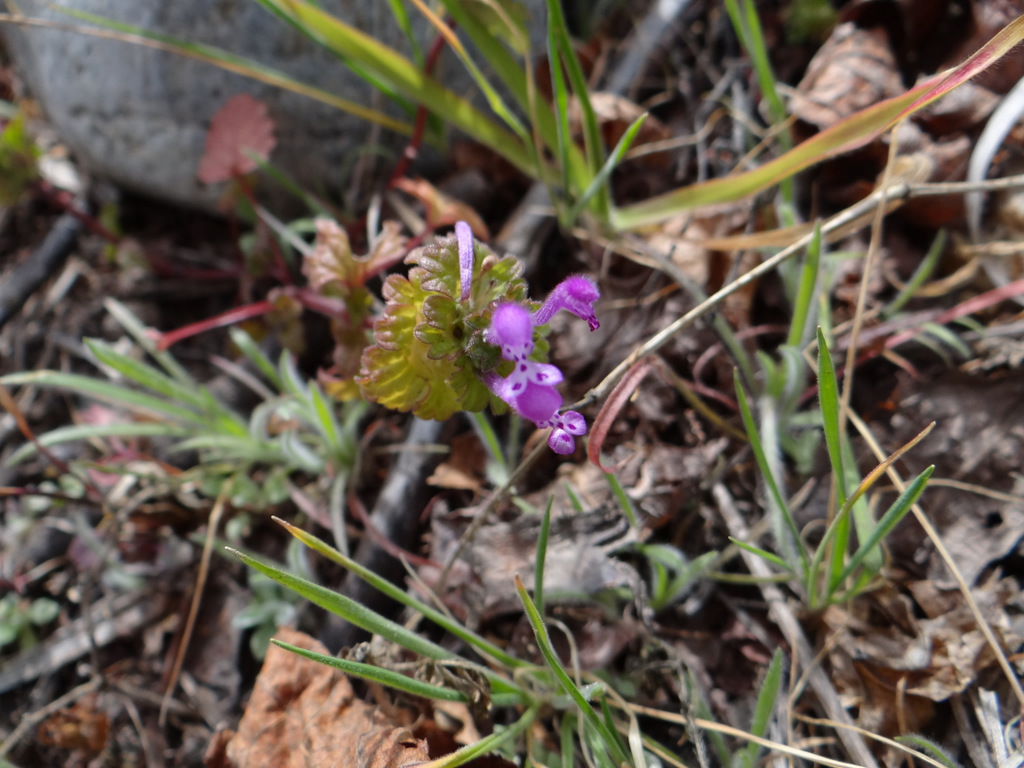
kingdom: Plantae
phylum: Tracheophyta
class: Magnoliopsida
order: Lamiales
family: Lamiaceae
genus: Lamium
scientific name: Lamium amplexicaule
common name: Henbit dead-nettle
